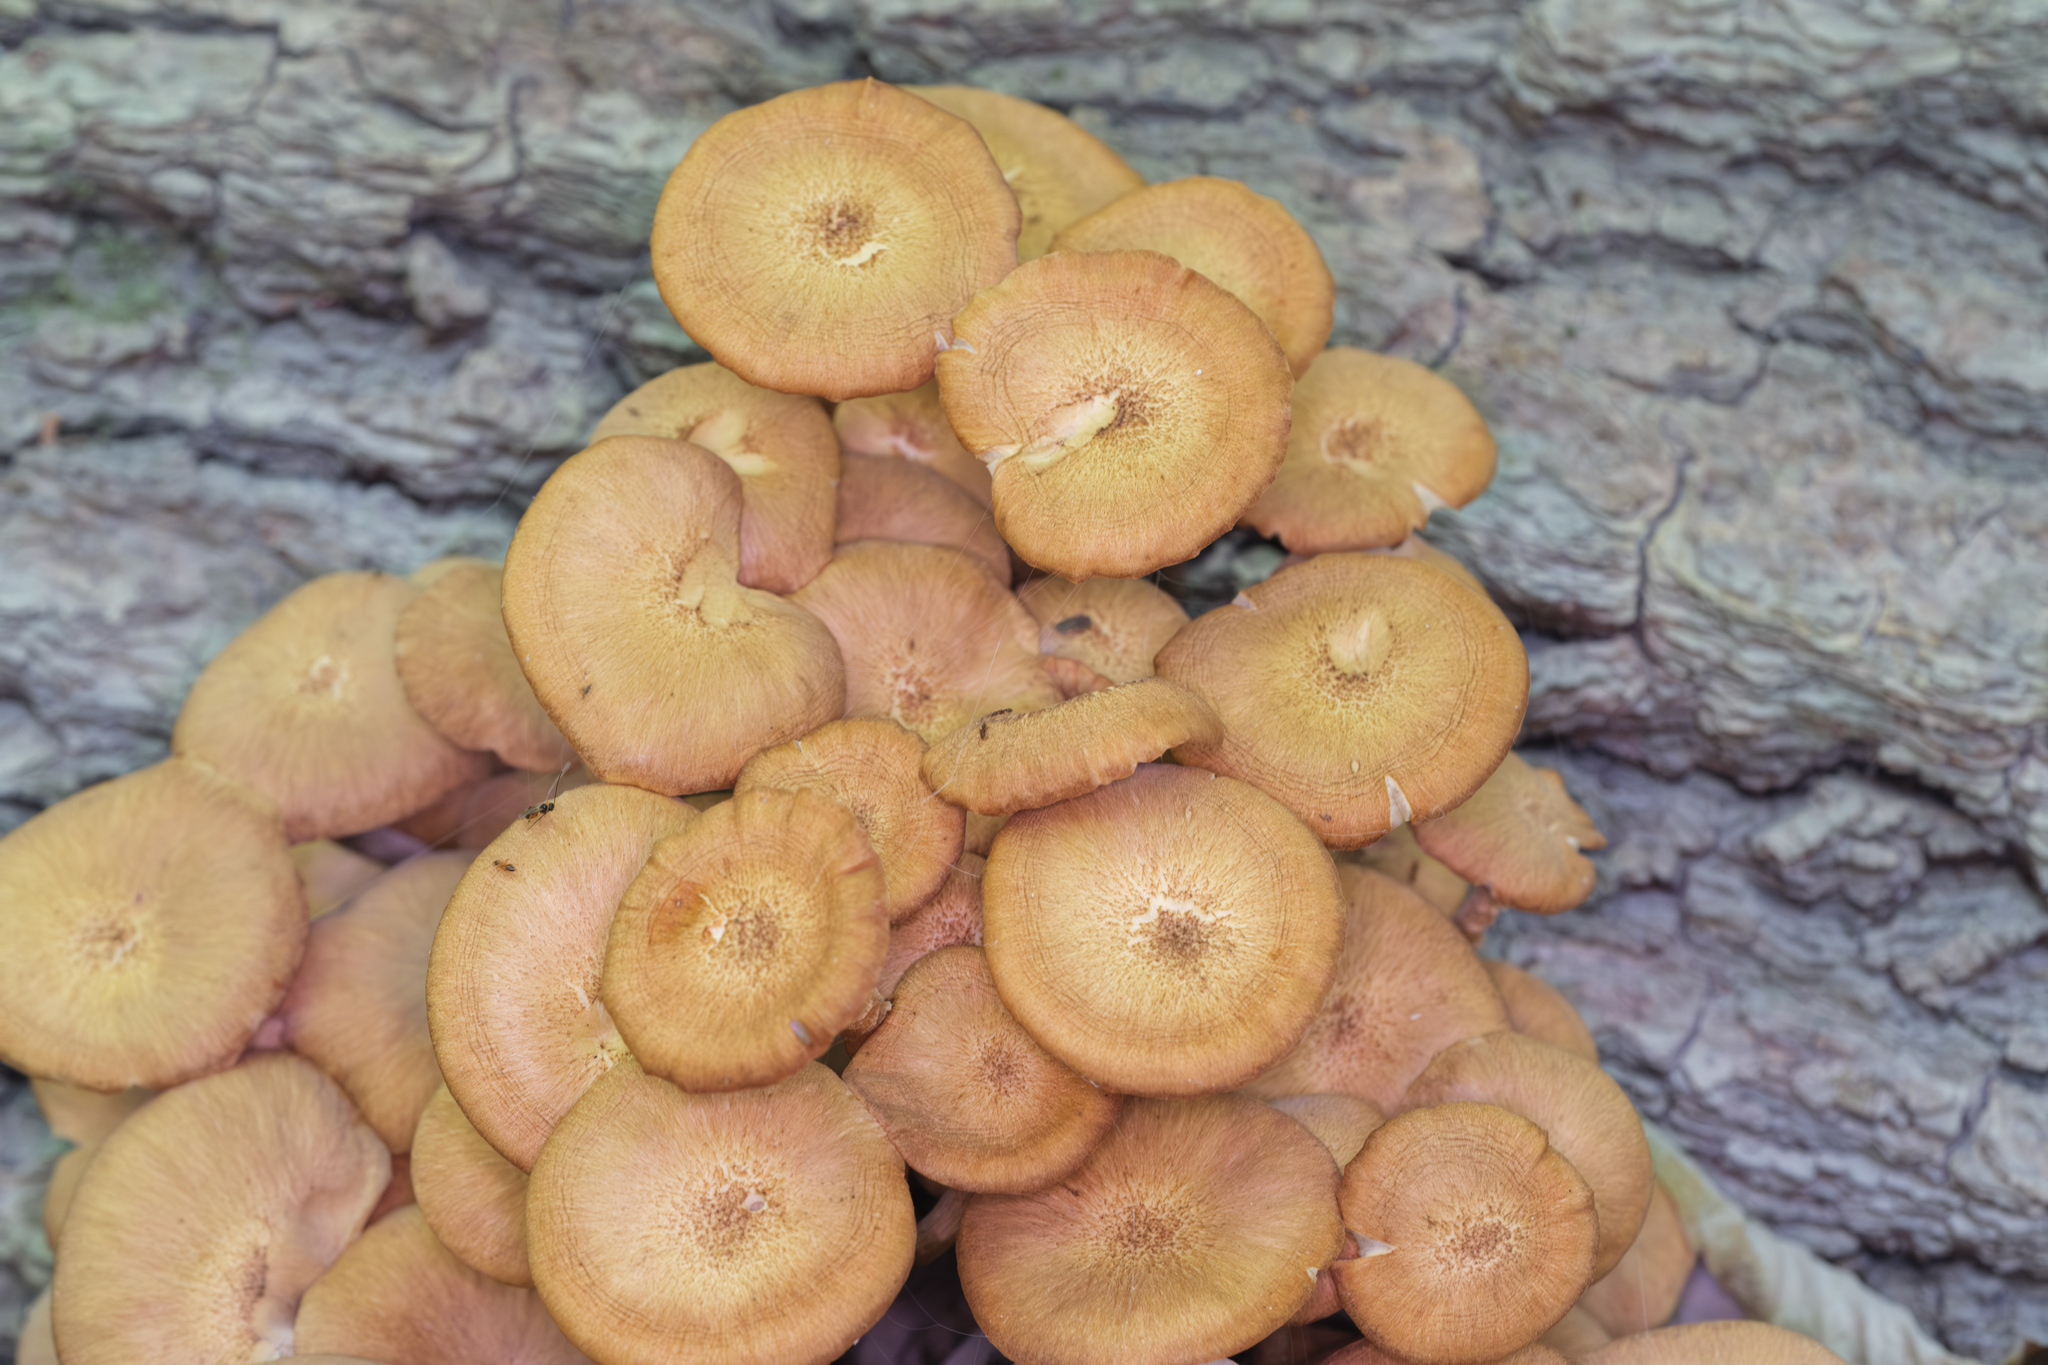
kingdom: Fungi
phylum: Basidiomycota
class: Agaricomycetes
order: Agaricales
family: Physalacriaceae
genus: Desarmillaria
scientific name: Desarmillaria caespitosa
